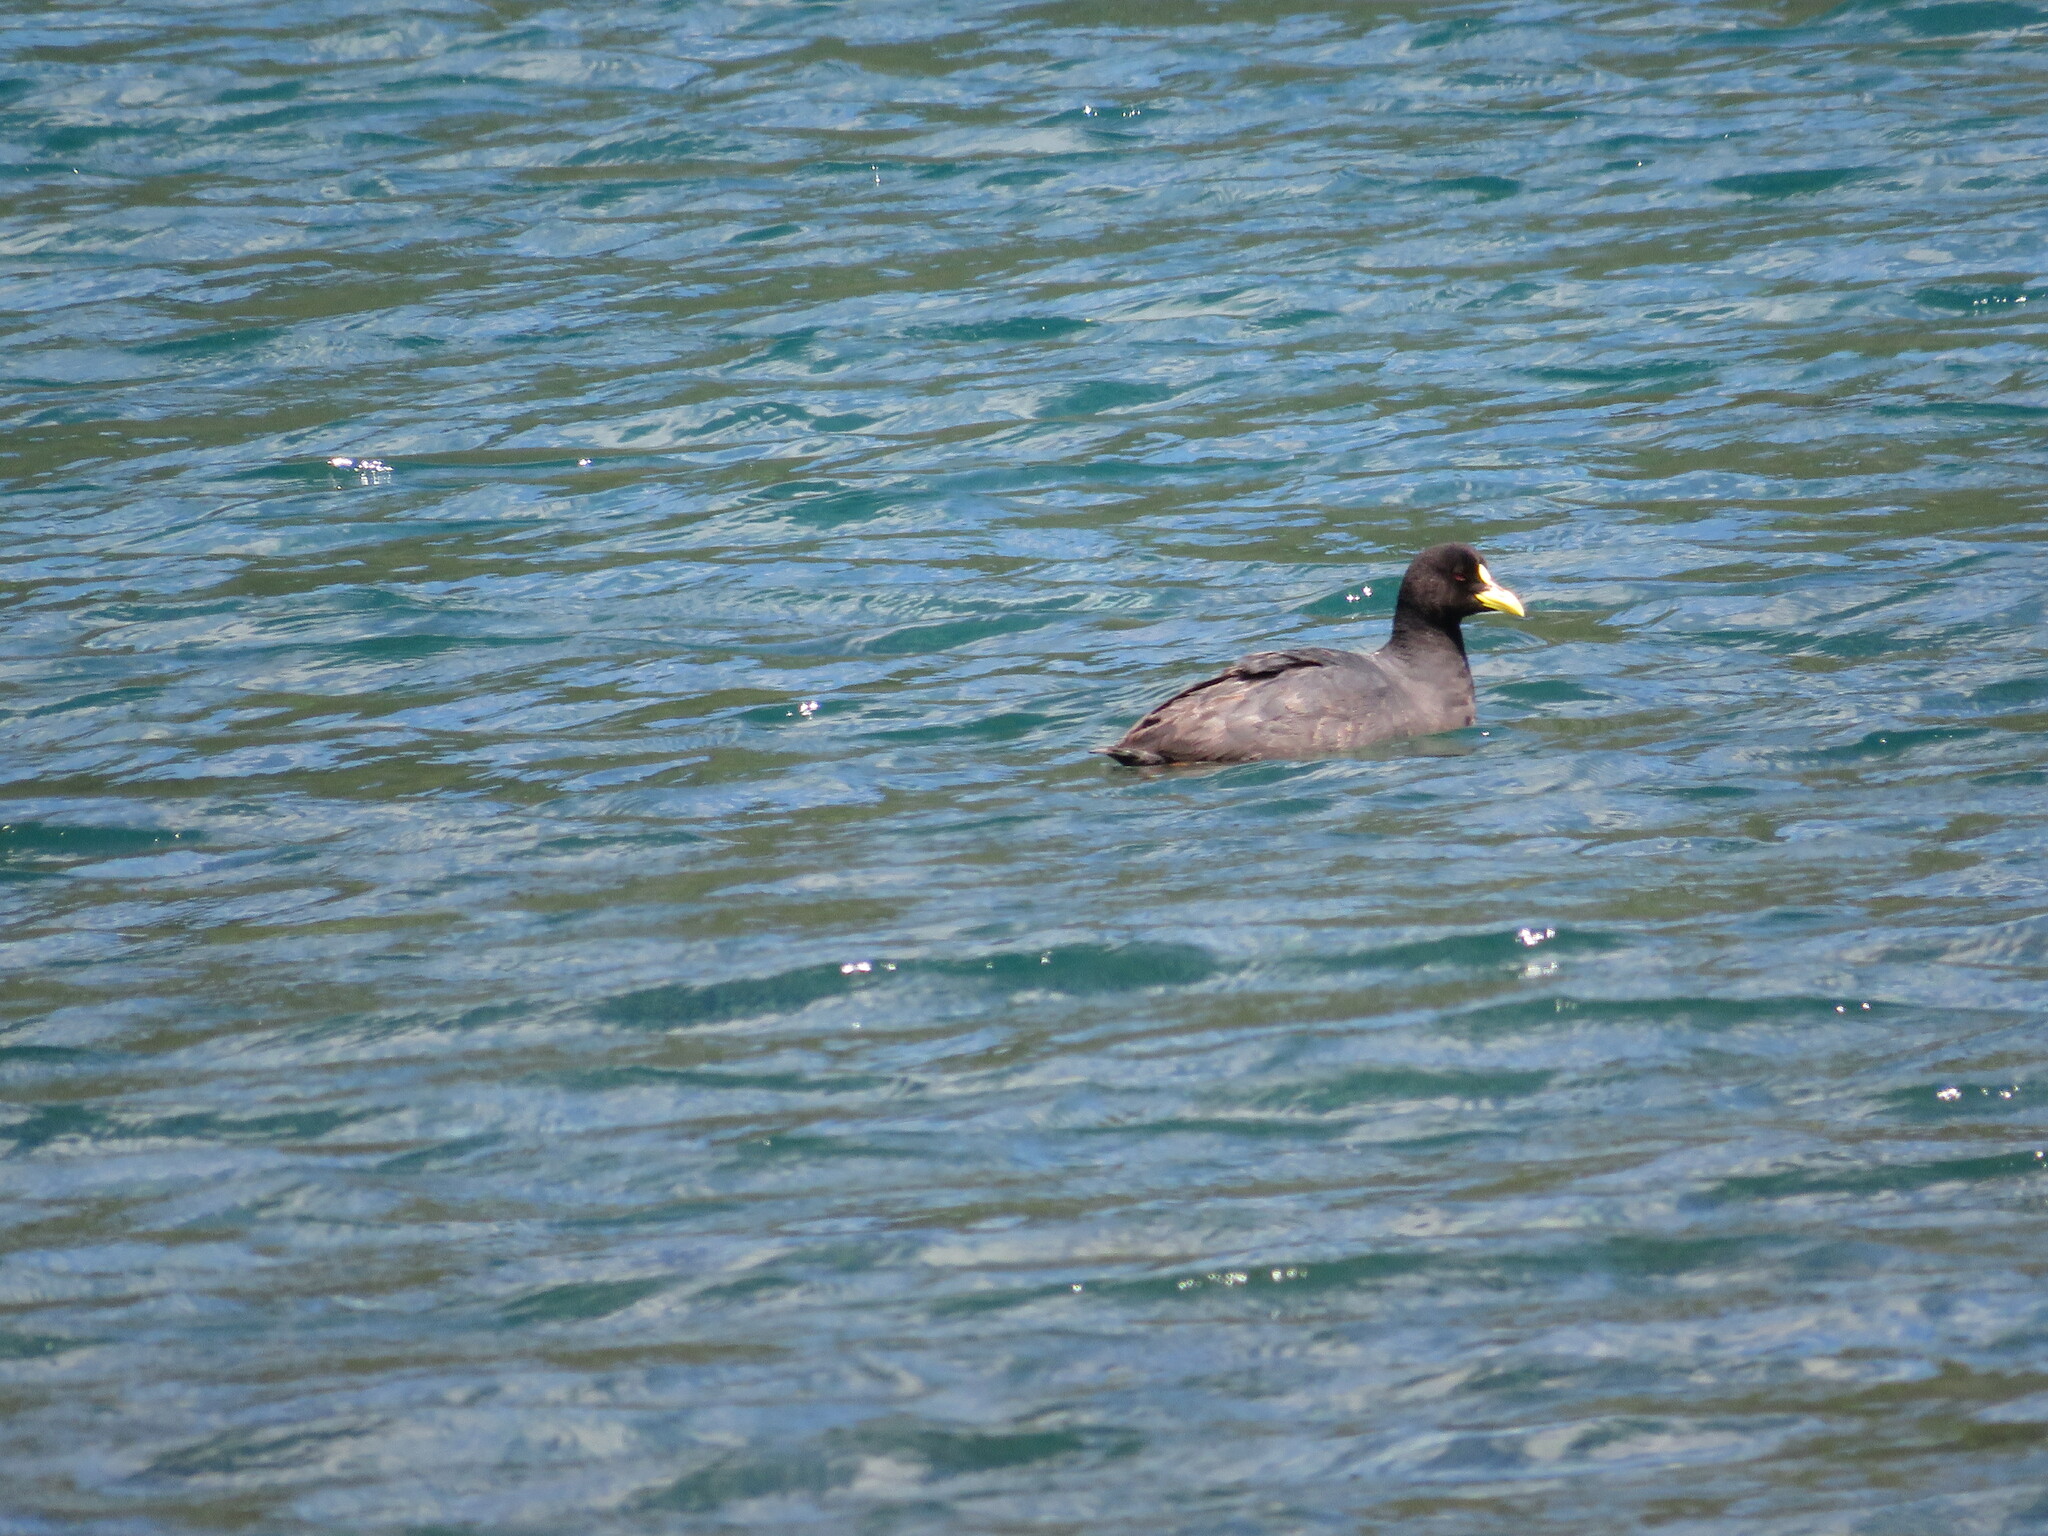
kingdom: Animalia
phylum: Chordata
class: Aves
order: Gruiformes
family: Rallidae
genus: Fulica
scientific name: Fulica armillata
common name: Red-gartered coot
